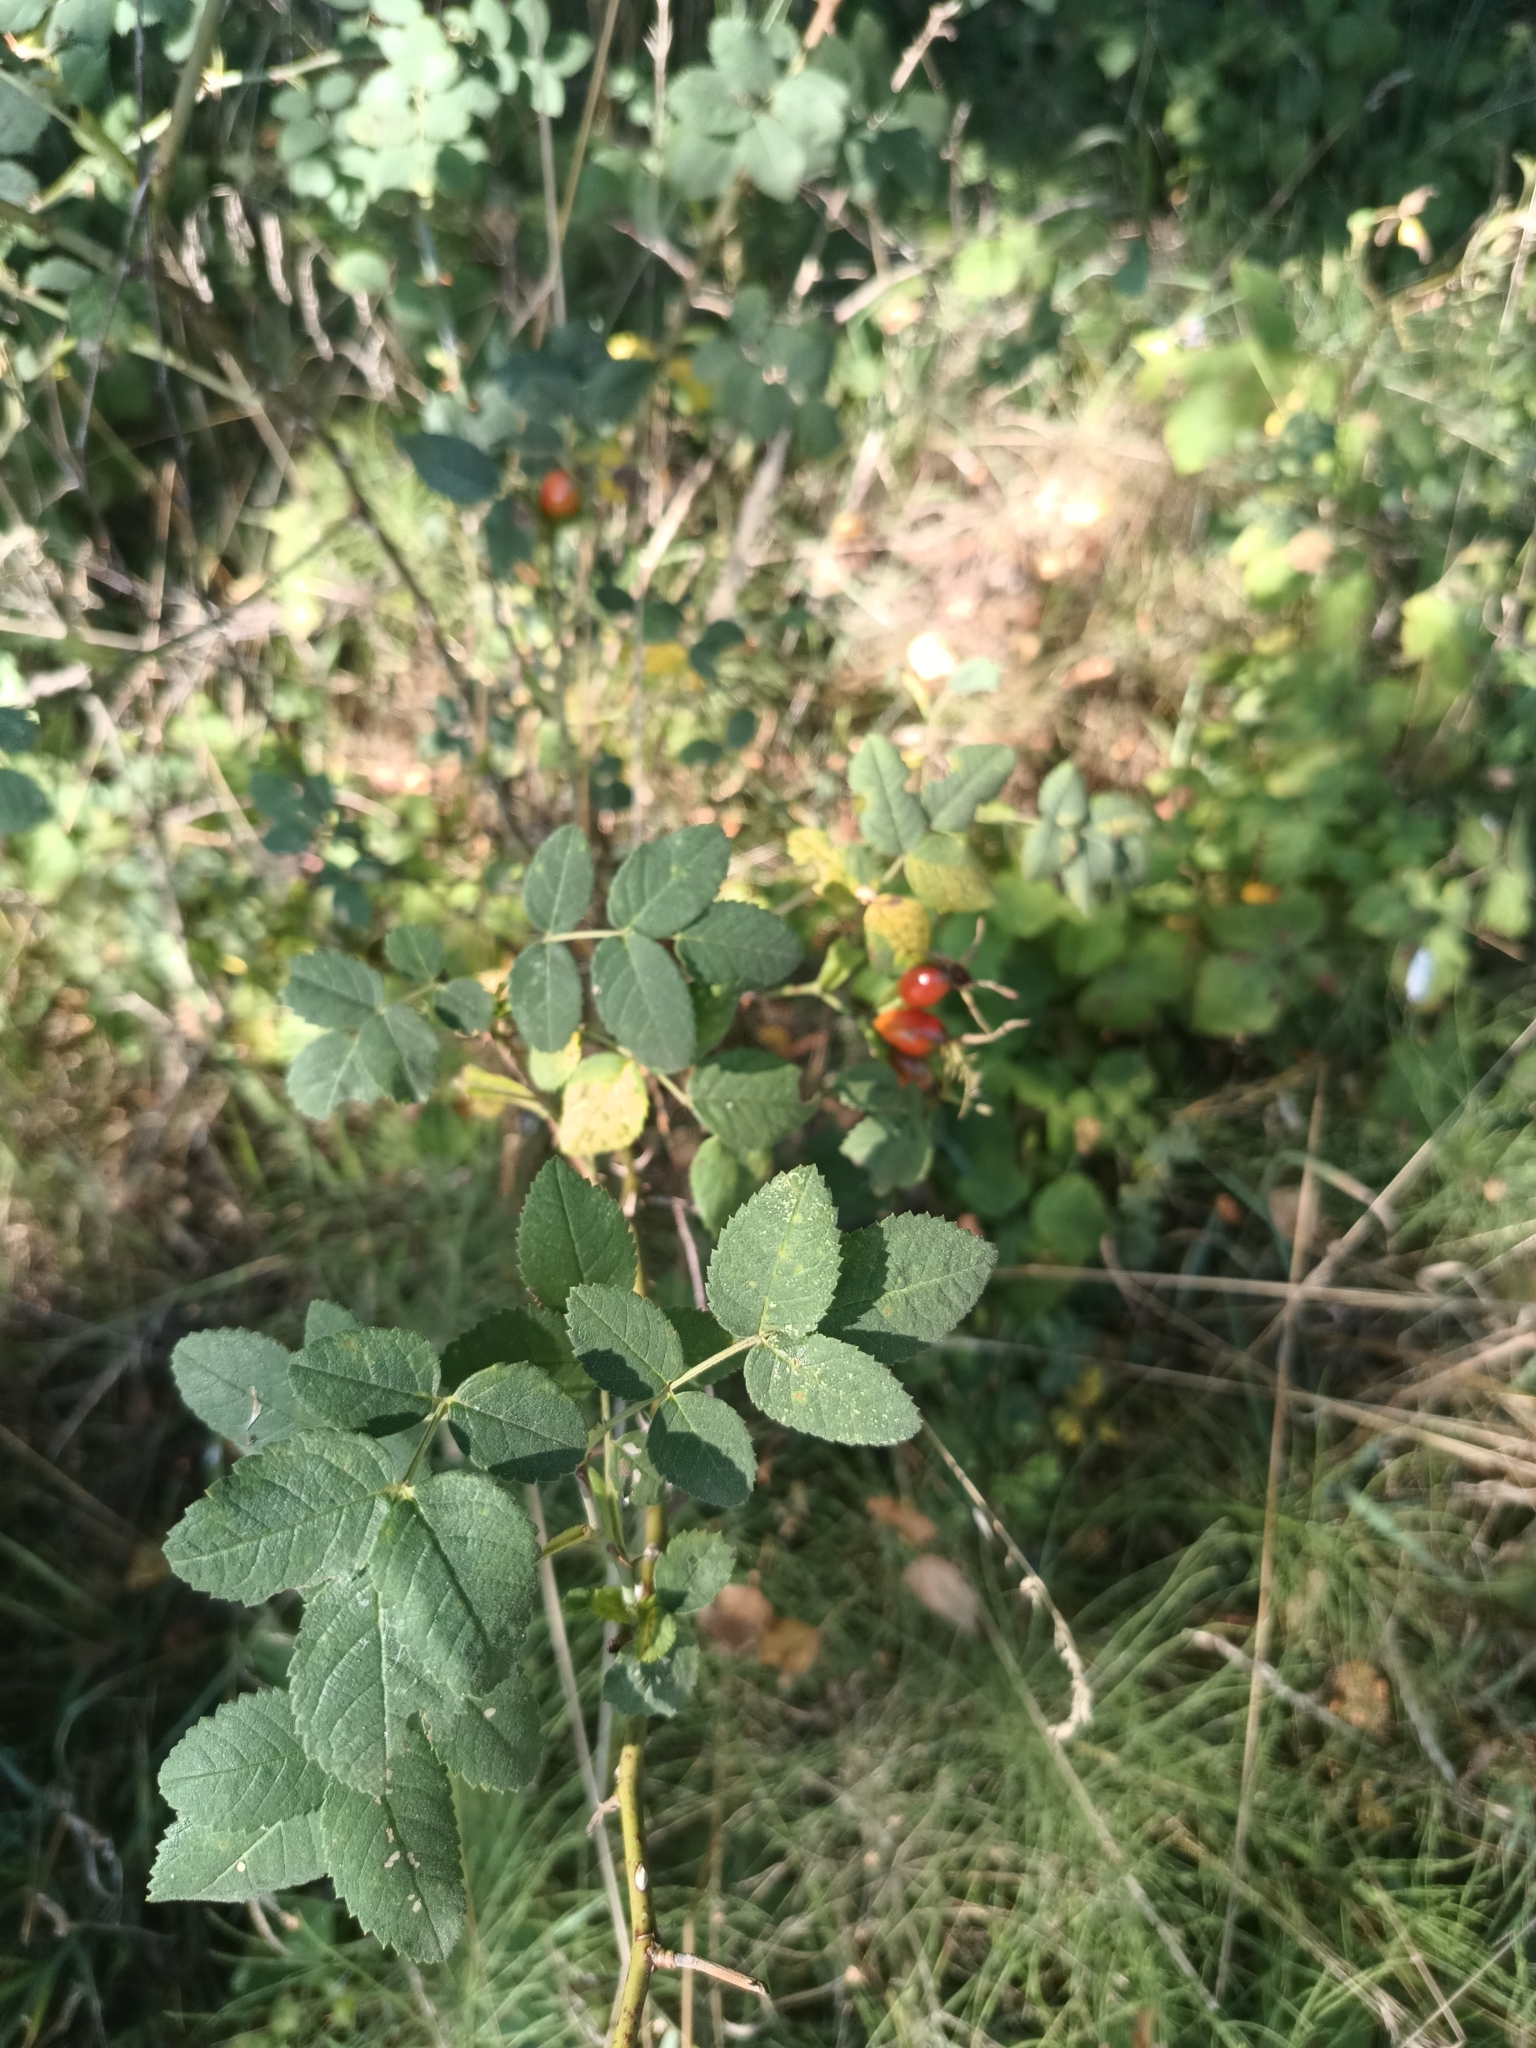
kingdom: Plantae
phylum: Tracheophyta
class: Magnoliopsida
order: Rosales
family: Rosaceae
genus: Rosa
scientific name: Rosa caesia
